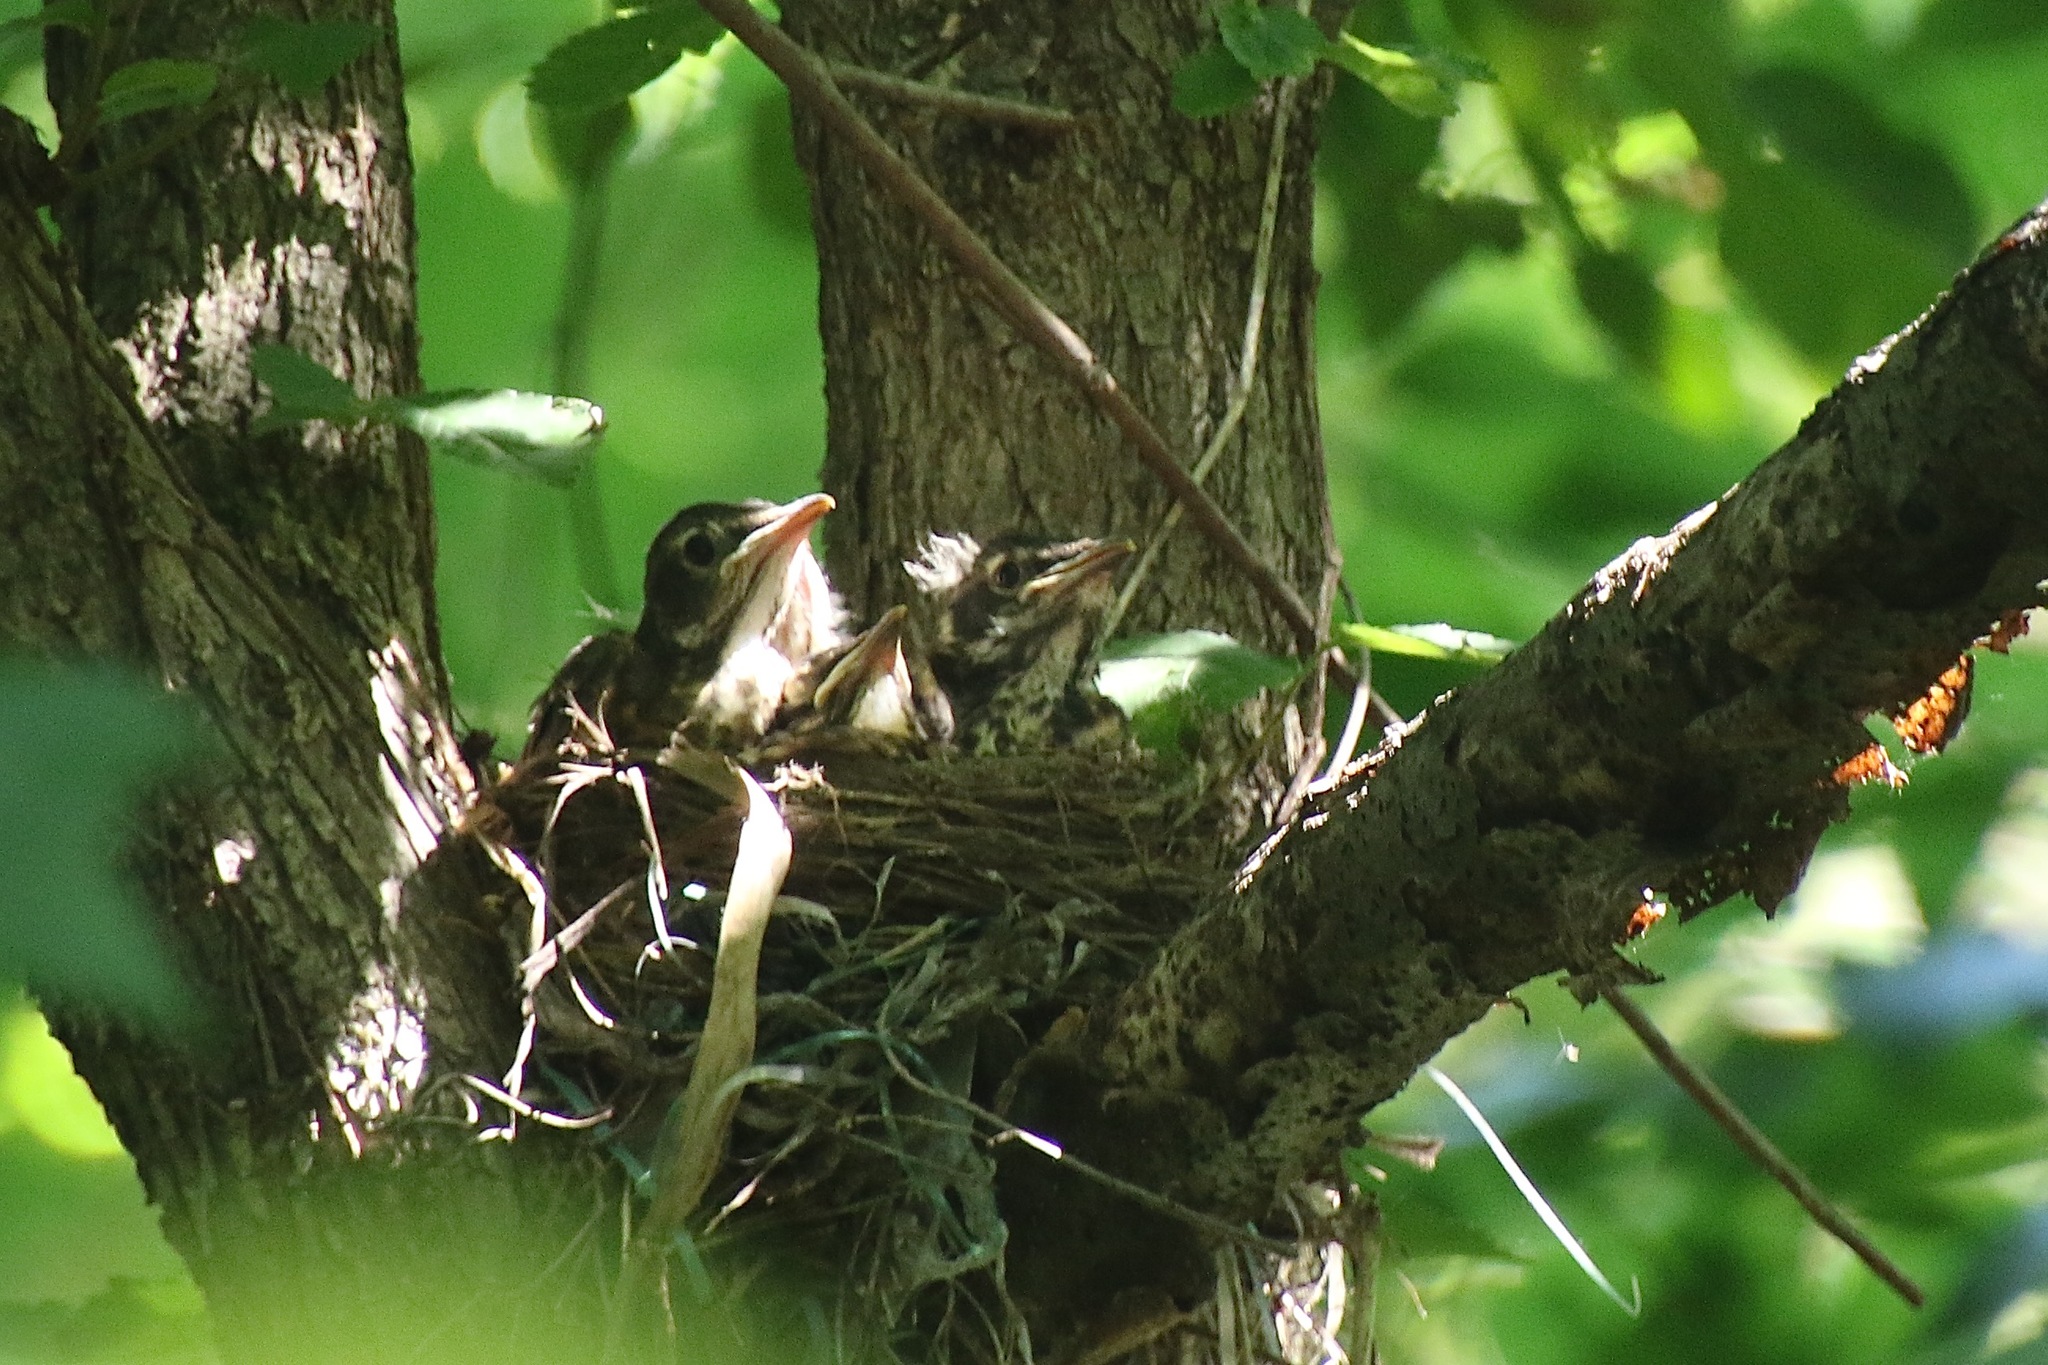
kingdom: Animalia
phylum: Chordata
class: Aves
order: Passeriformes
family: Turdidae
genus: Turdus
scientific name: Turdus migratorius
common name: American robin
